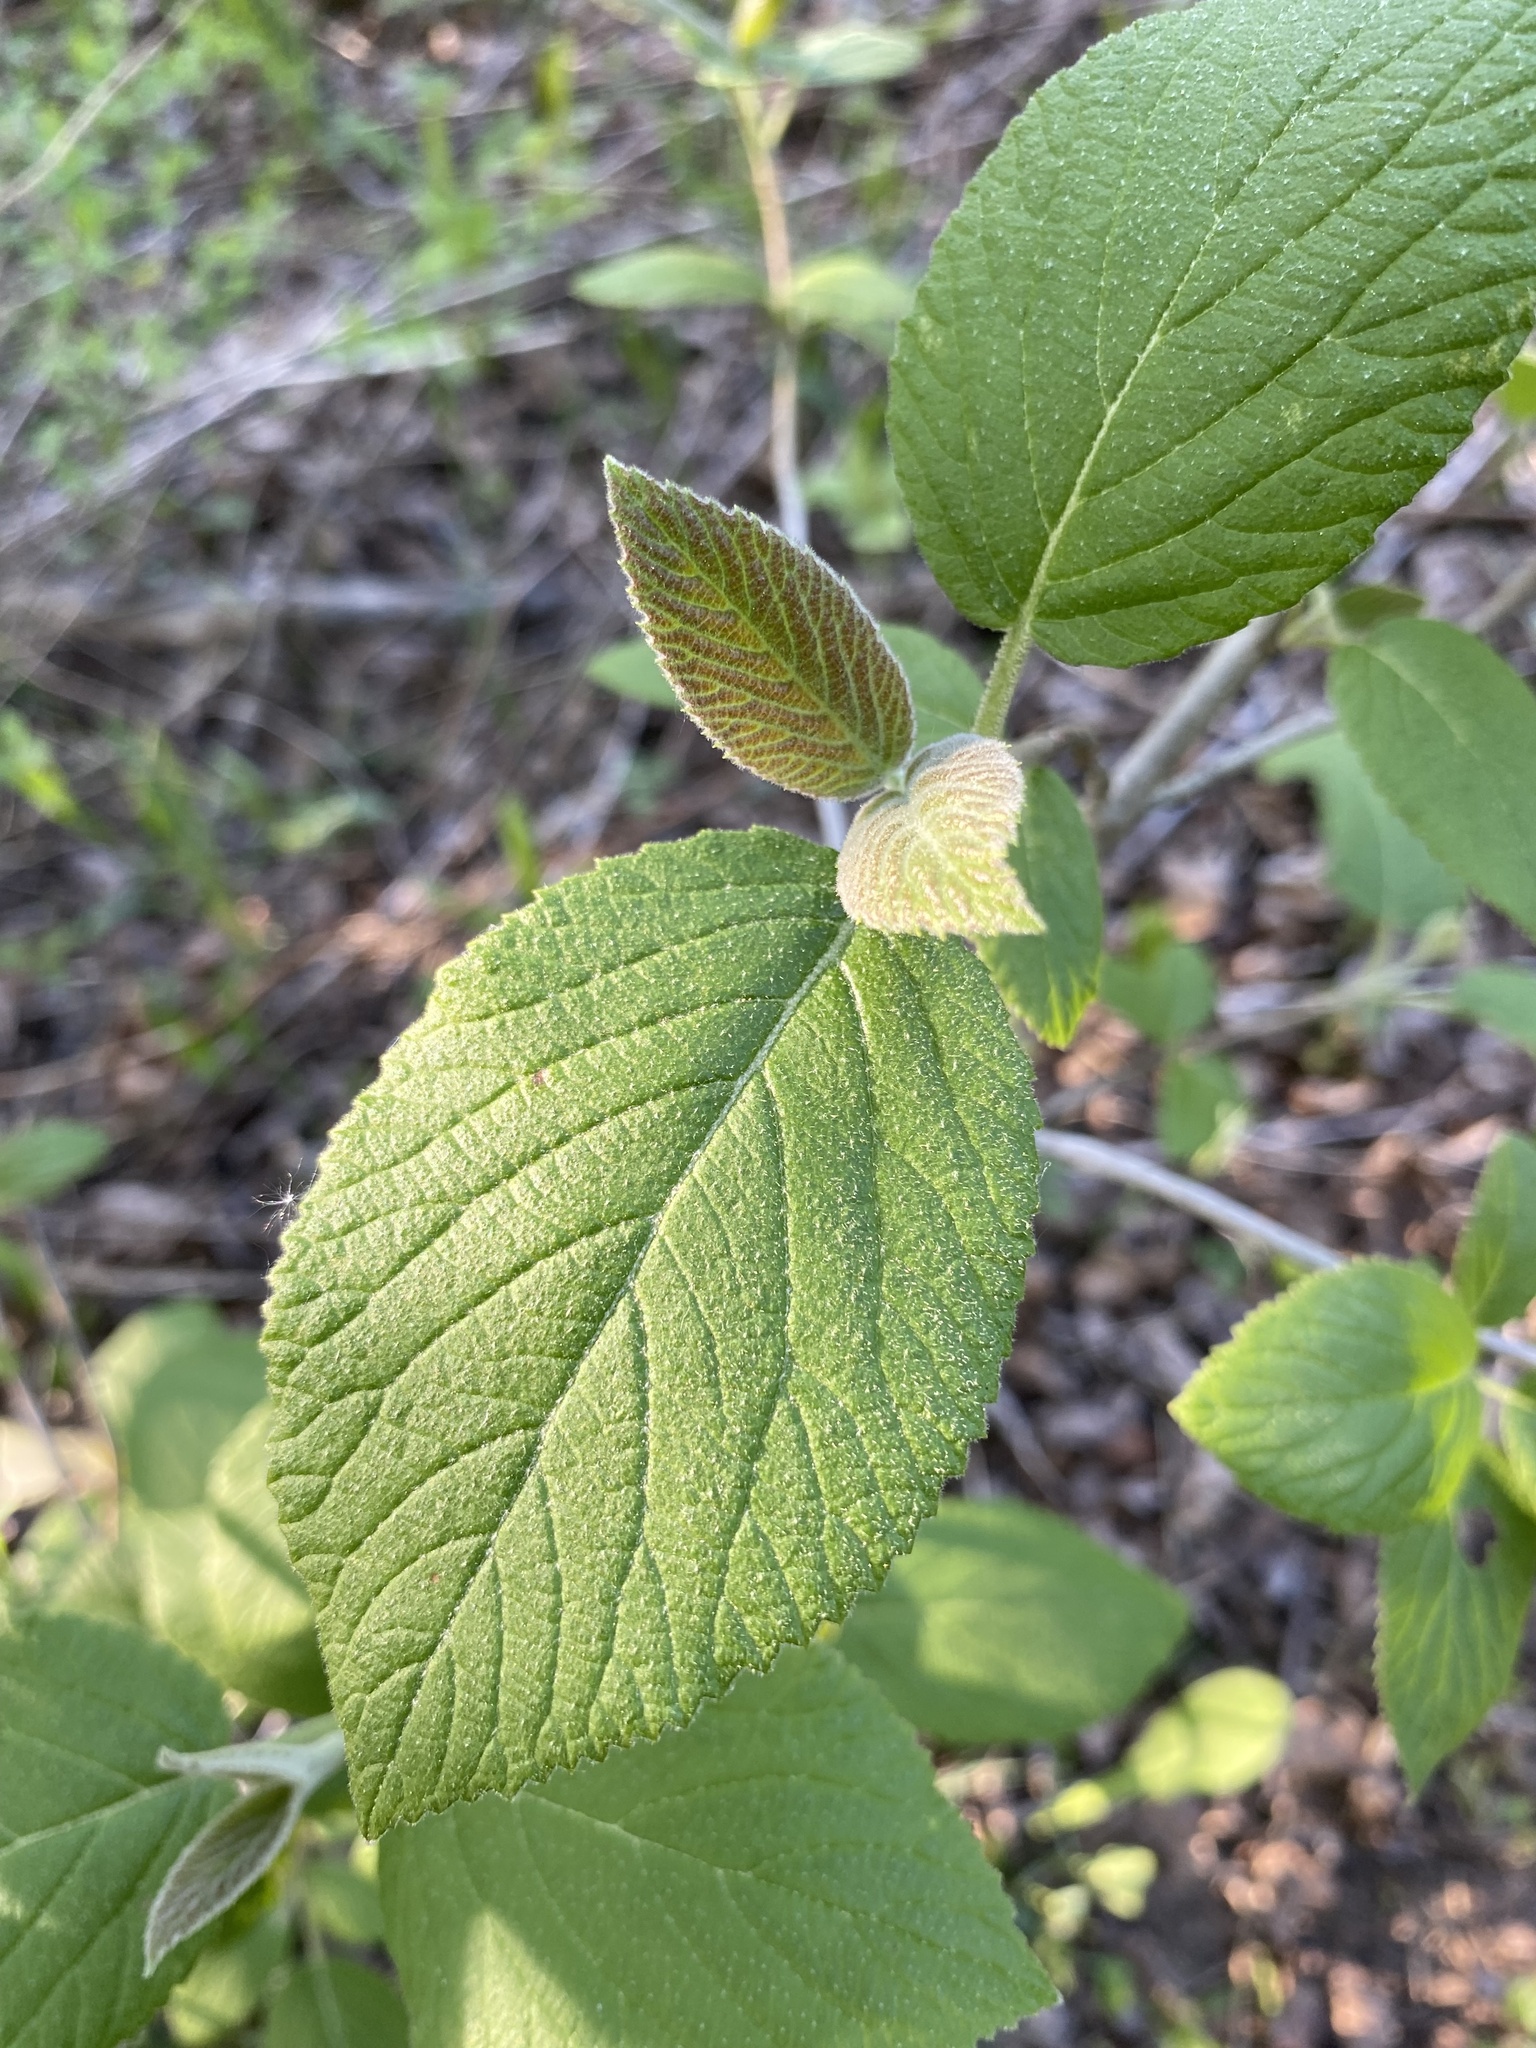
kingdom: Plantae
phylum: Tracheophyta
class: Magnoliopsida
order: Dipsacales
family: Viburnaceae
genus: Viburnum
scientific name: Viburnum lantana
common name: Wayfaring tree
